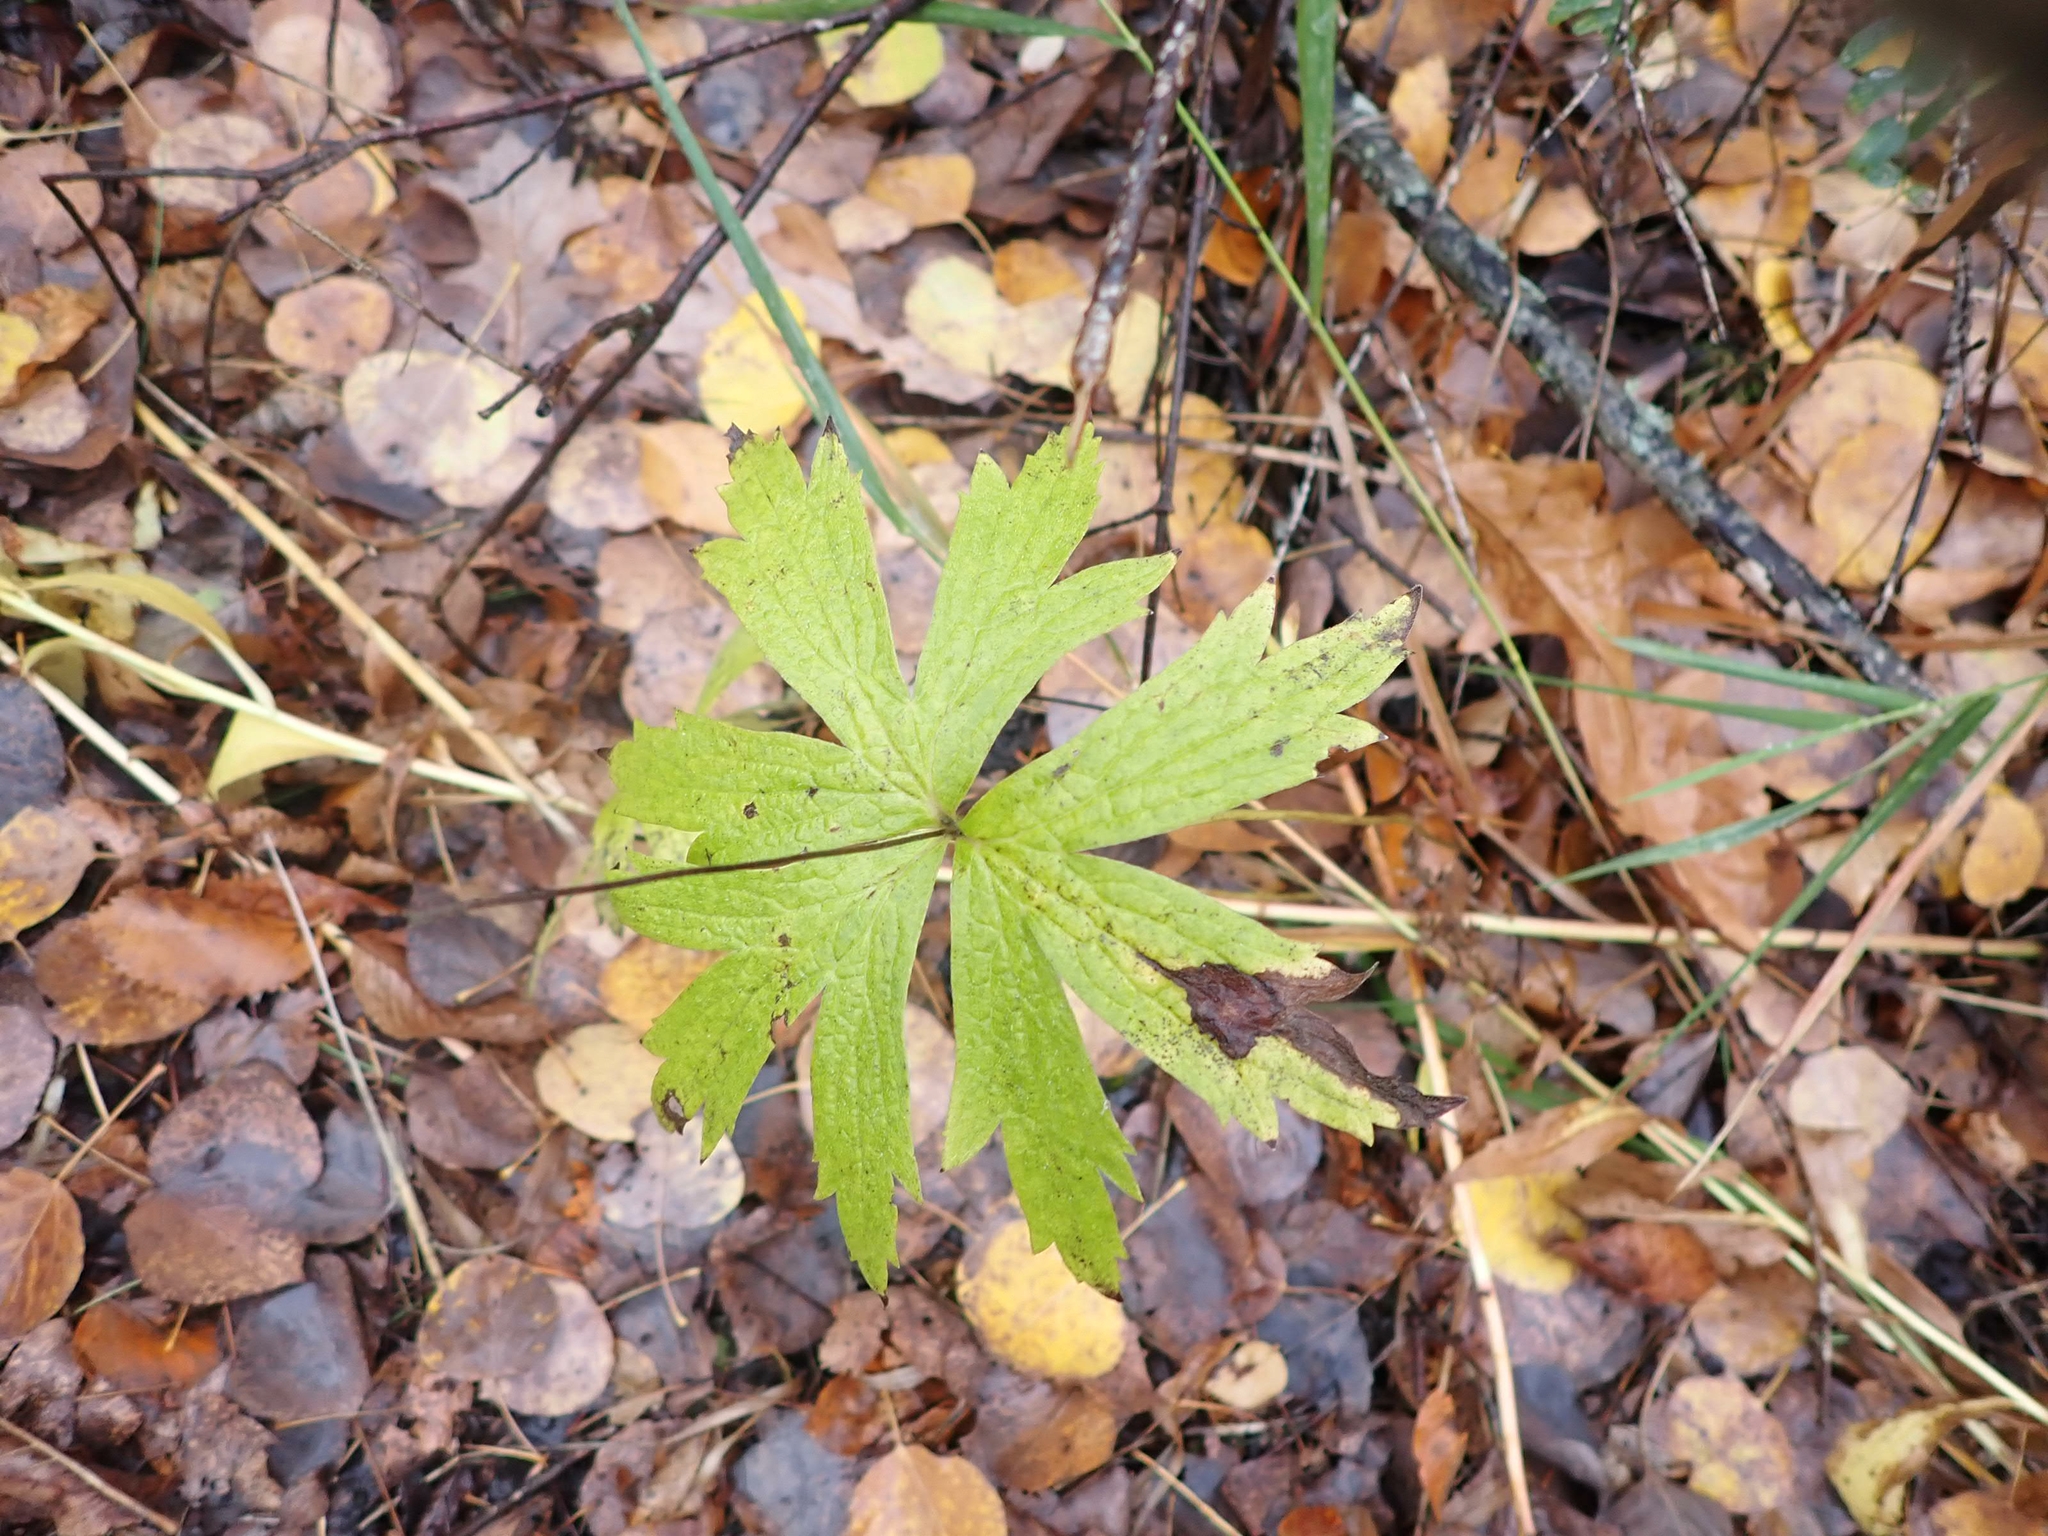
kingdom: Plantae
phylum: Tracheophyta
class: Magnoliopsida
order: Ranunculales
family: Ranunculaceae
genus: Anemonastrum
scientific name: Anemonastrum canadense
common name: Canada anemone
